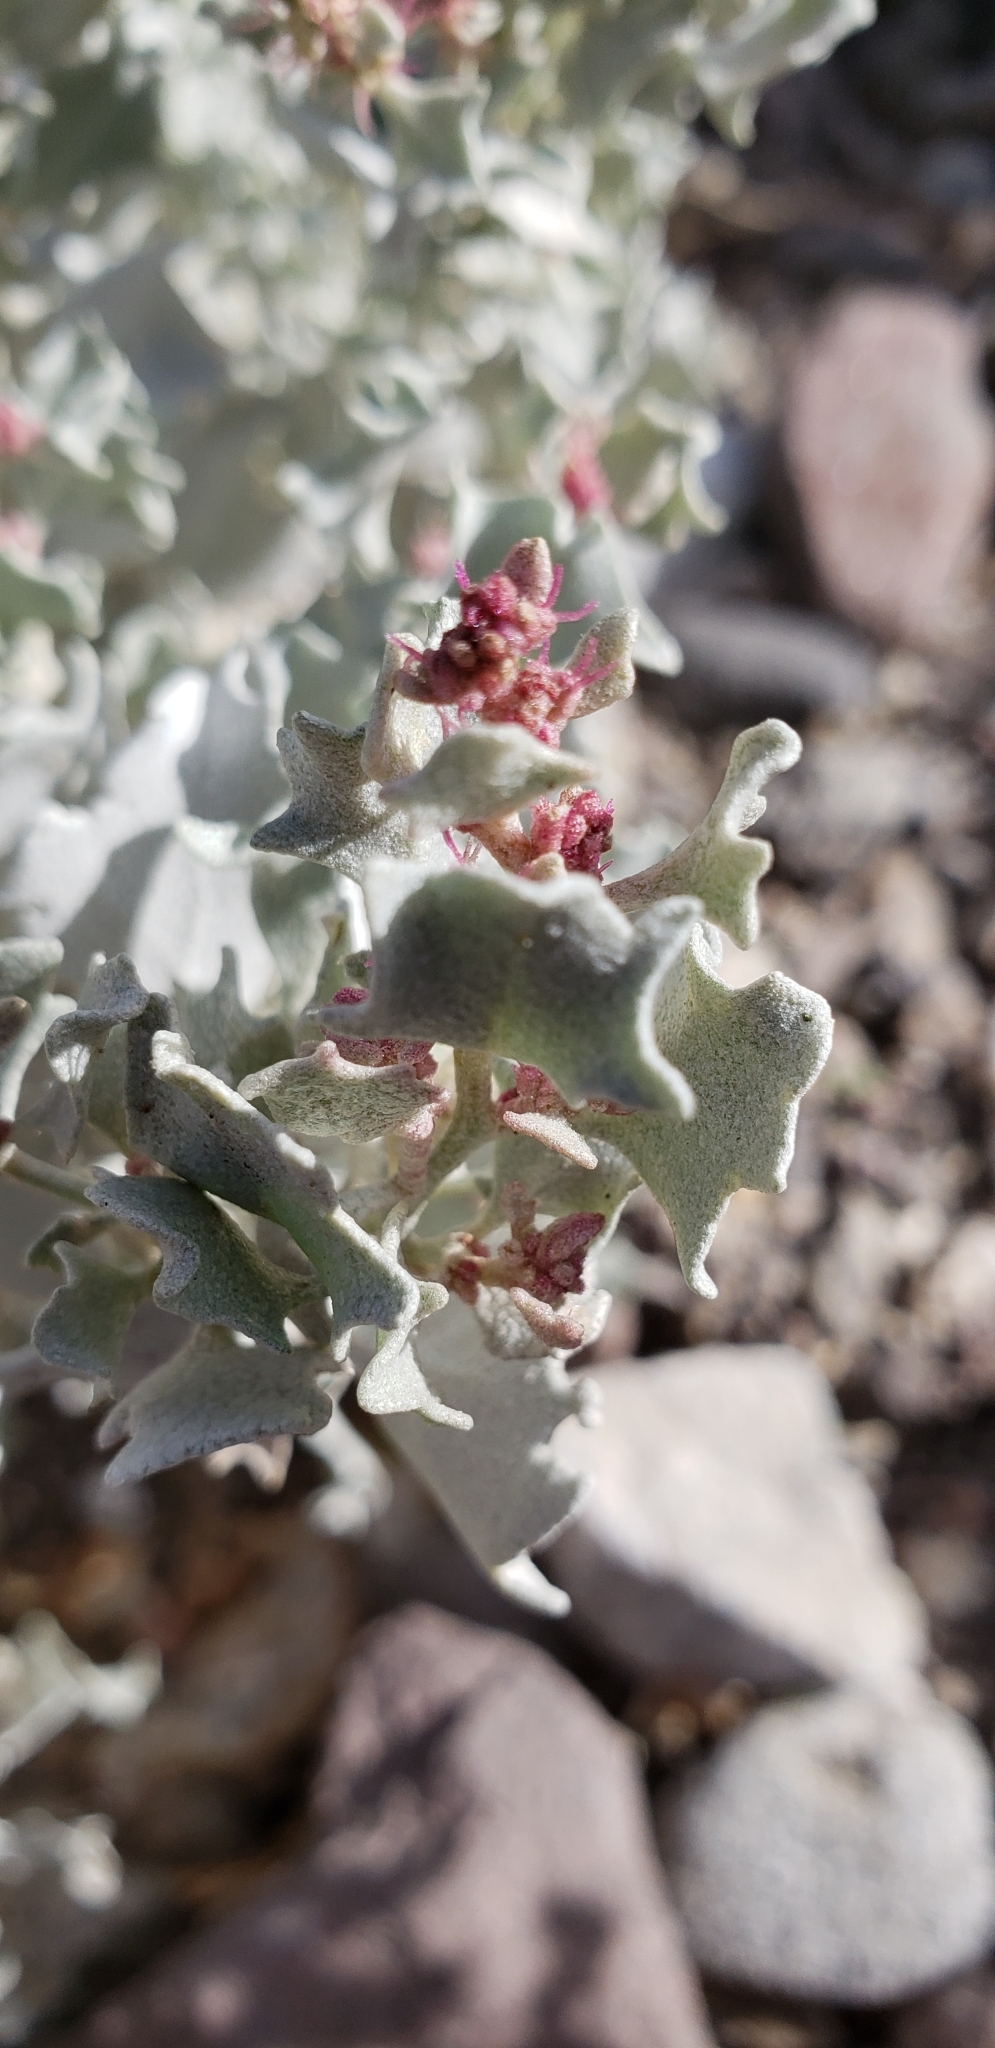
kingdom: Plantae
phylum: Tracheophyta
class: Magnoliopsida
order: Caryophyllales
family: Amaranthaceae
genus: Atriplex
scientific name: Atriplex hymenelytra
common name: Desert-holly
